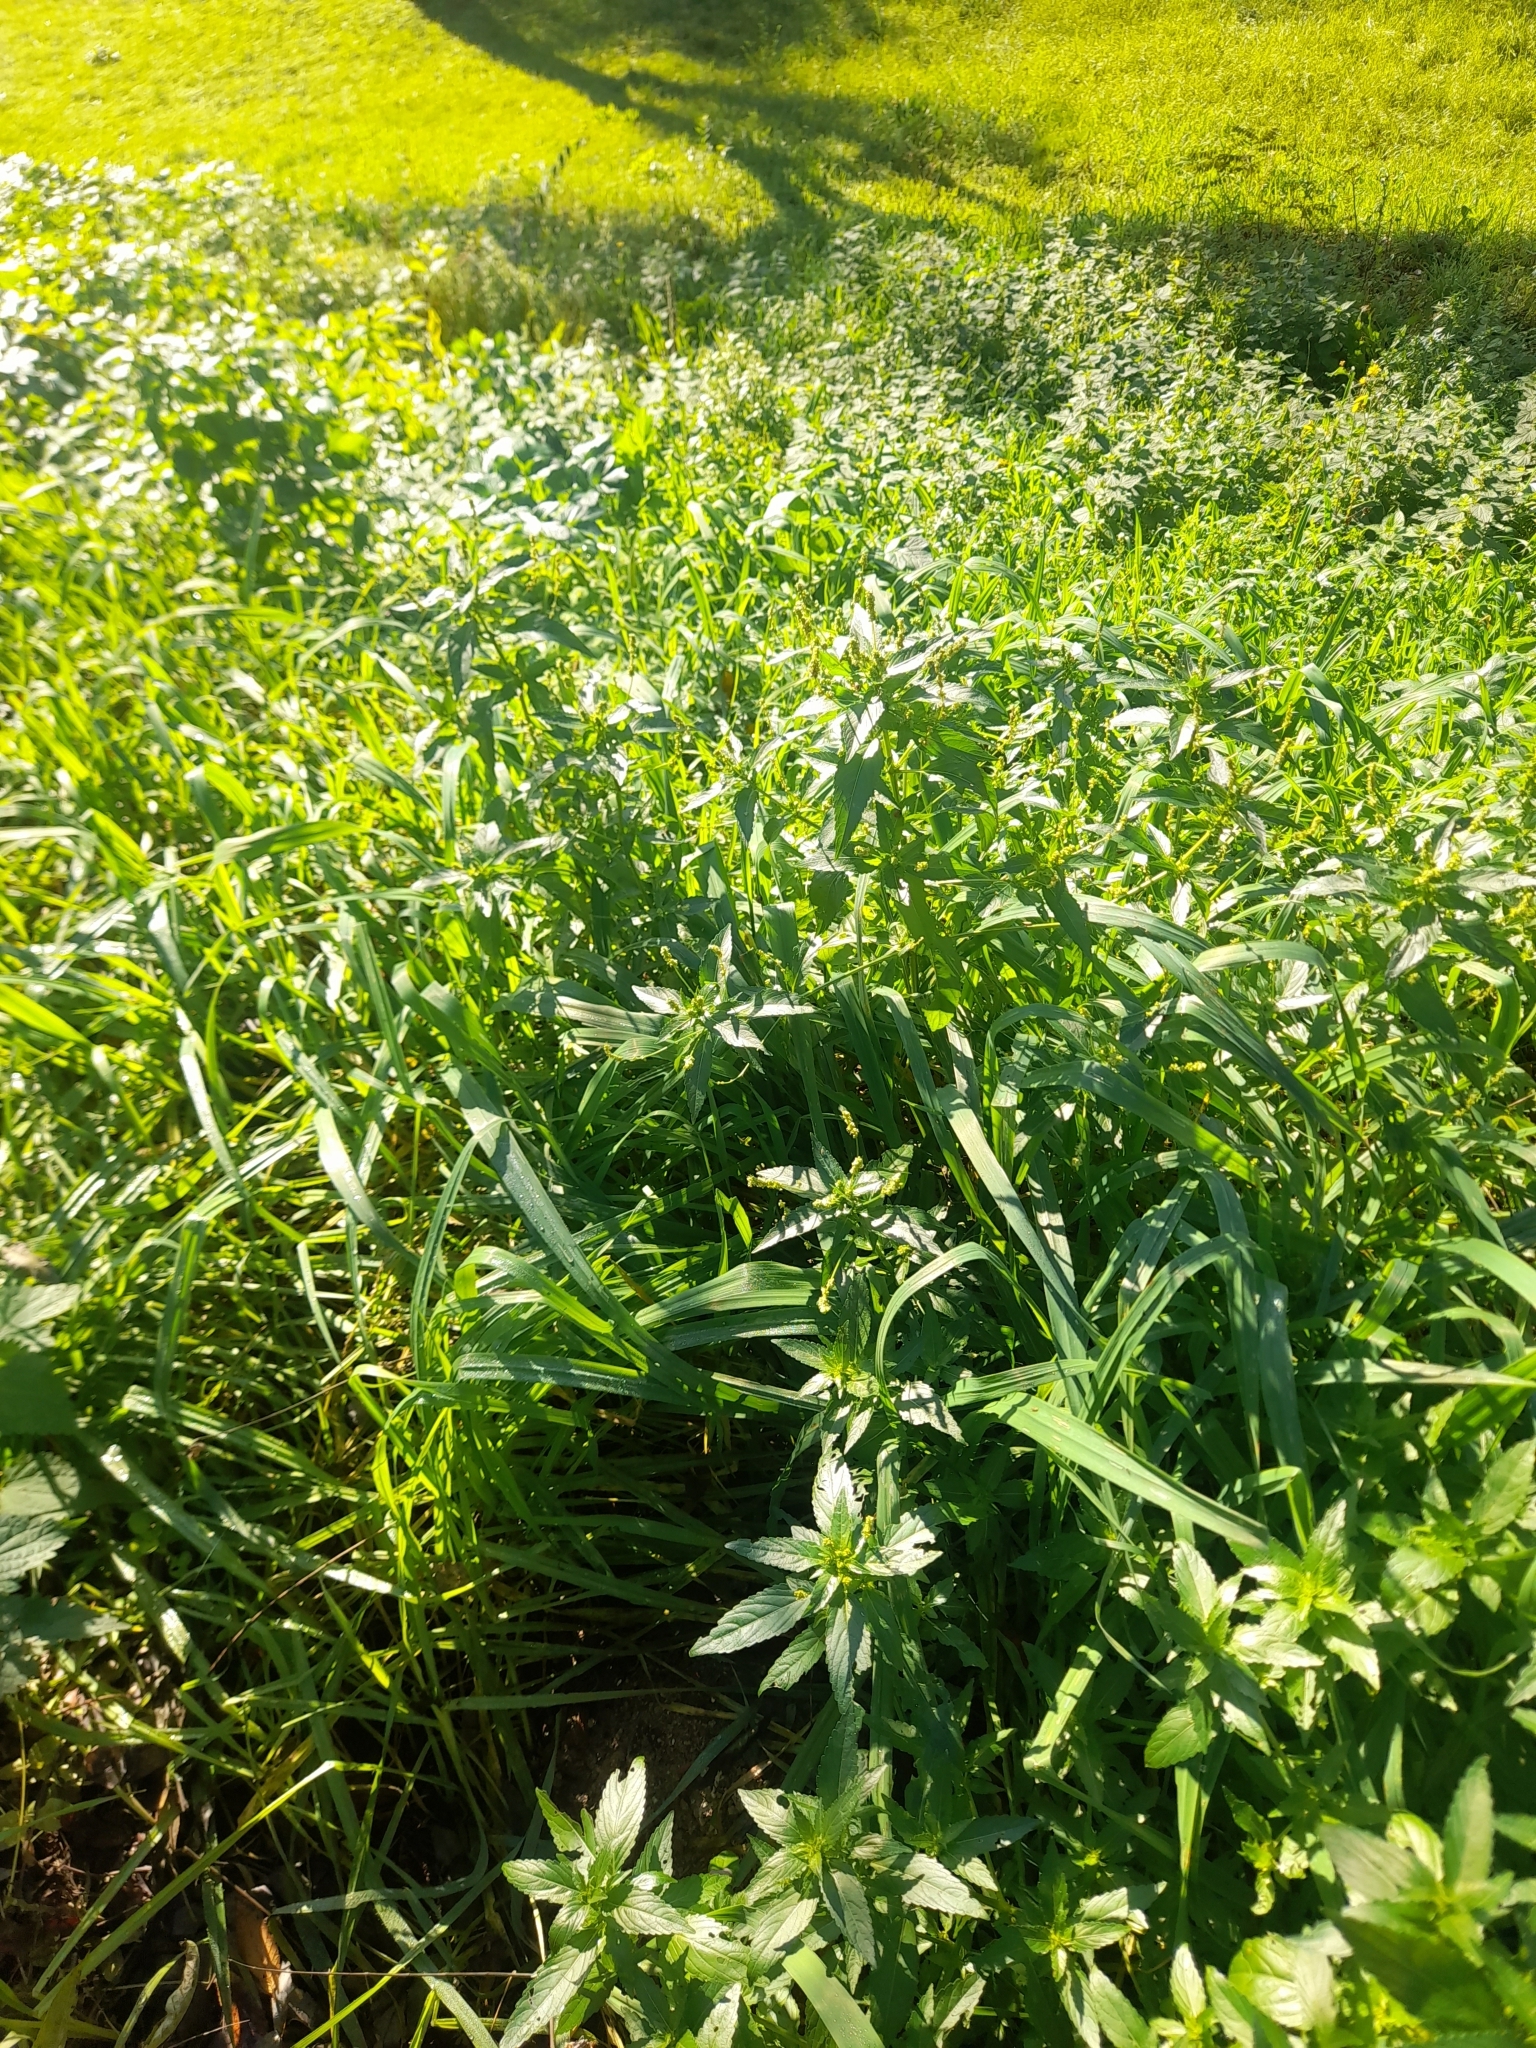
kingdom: Plantae
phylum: Tracheophyta
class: Magnoliopsida
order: Malpighiales
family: Euphorbiaceae
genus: Mercurialis
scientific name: Mercurialis annua
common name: Annual mercury
